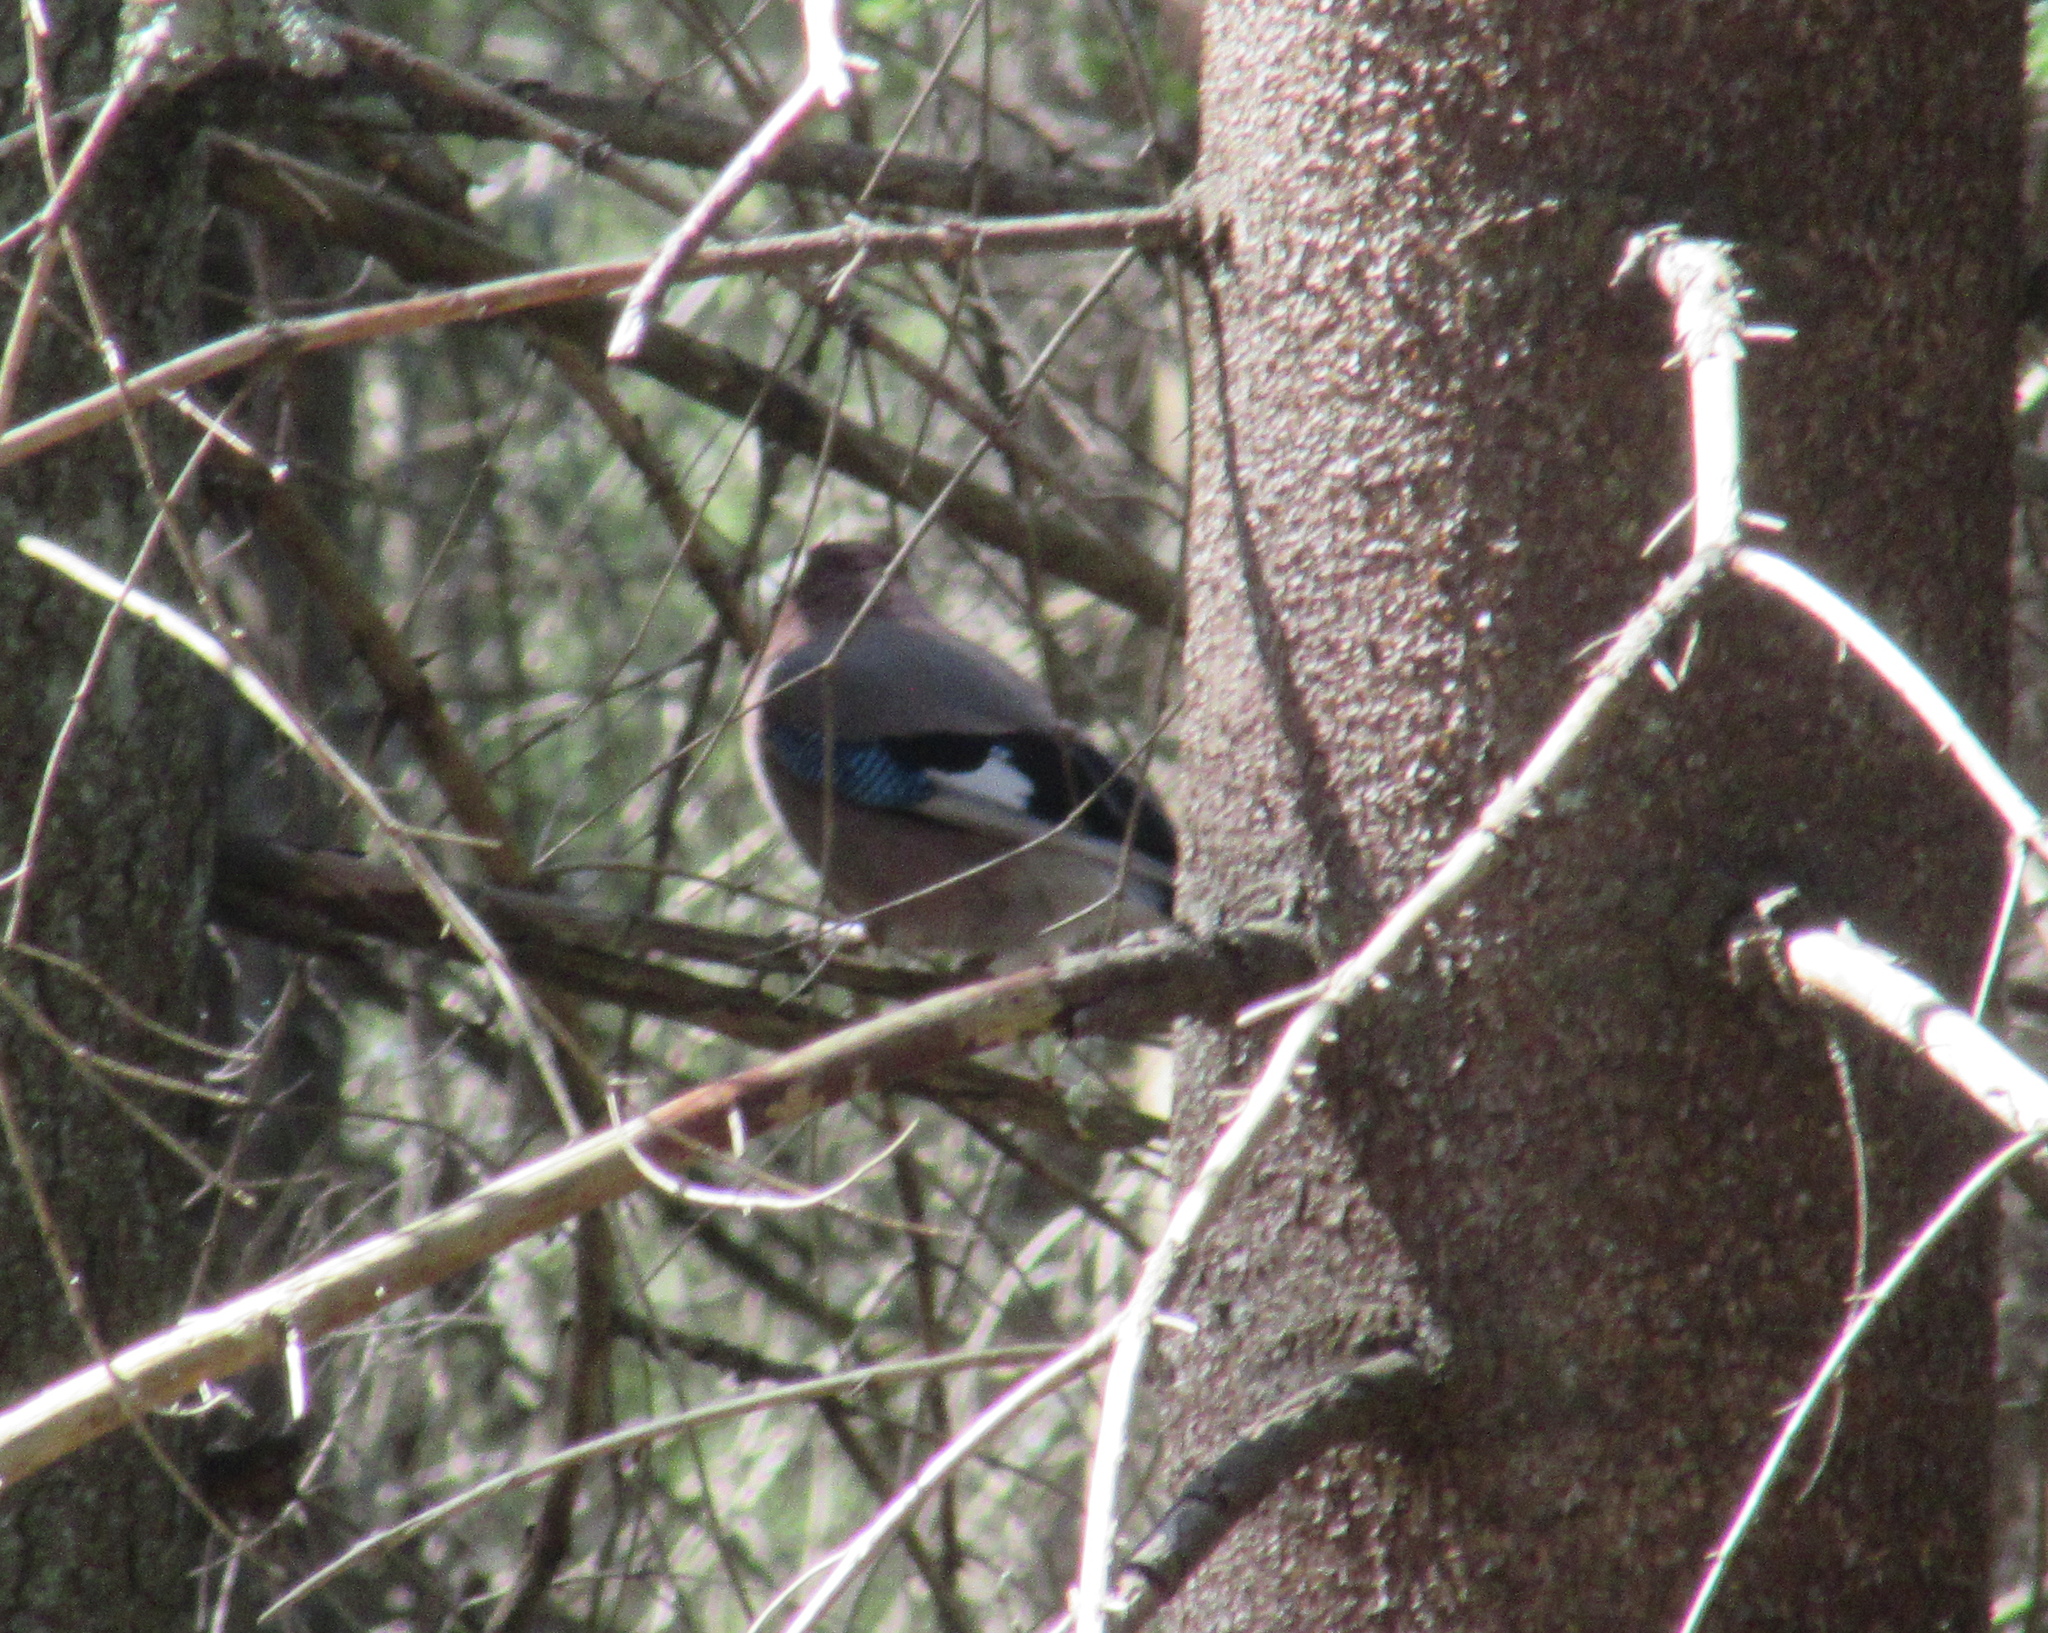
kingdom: Animalia
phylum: Chordata
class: Aves
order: Passeriformes
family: Corvidae
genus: Garrulus
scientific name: Garrulus glandarius
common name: Eurasian jay
